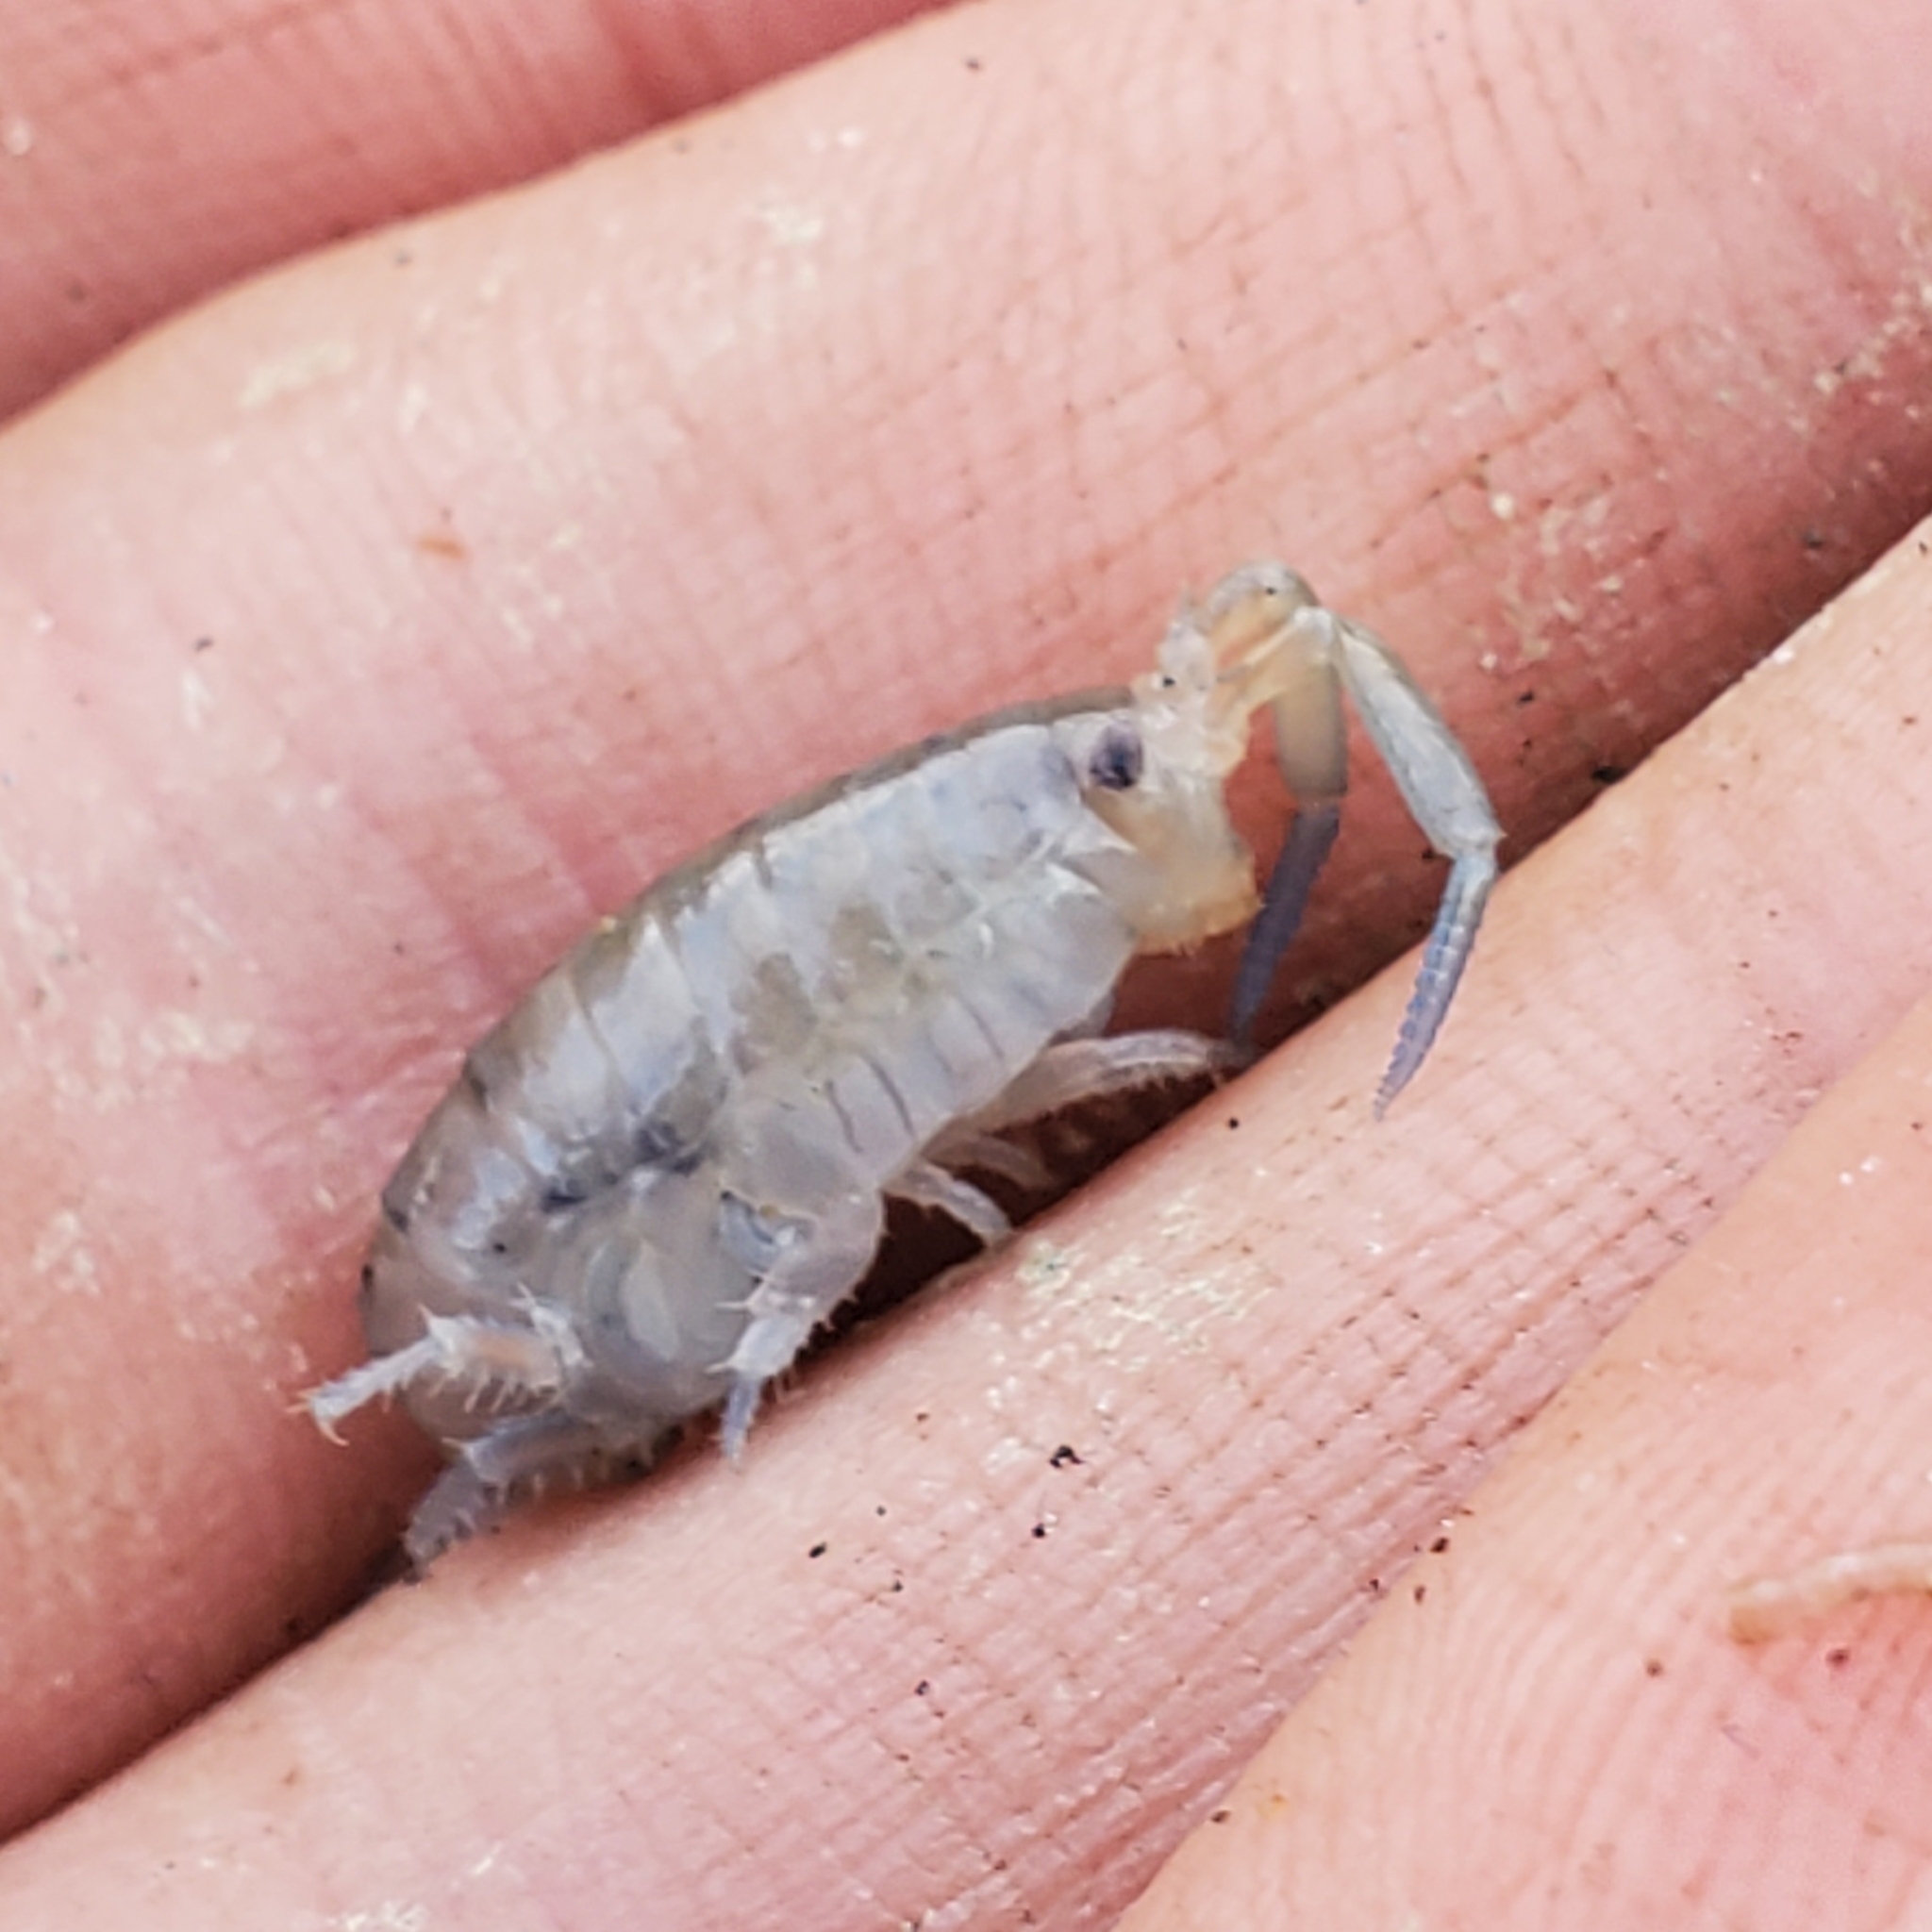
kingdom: Animalia
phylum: Arthropoda
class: Malacostraca
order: Amphipoda
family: Talitridae
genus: Megalorchestia
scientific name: Megalorchestia corniculata
